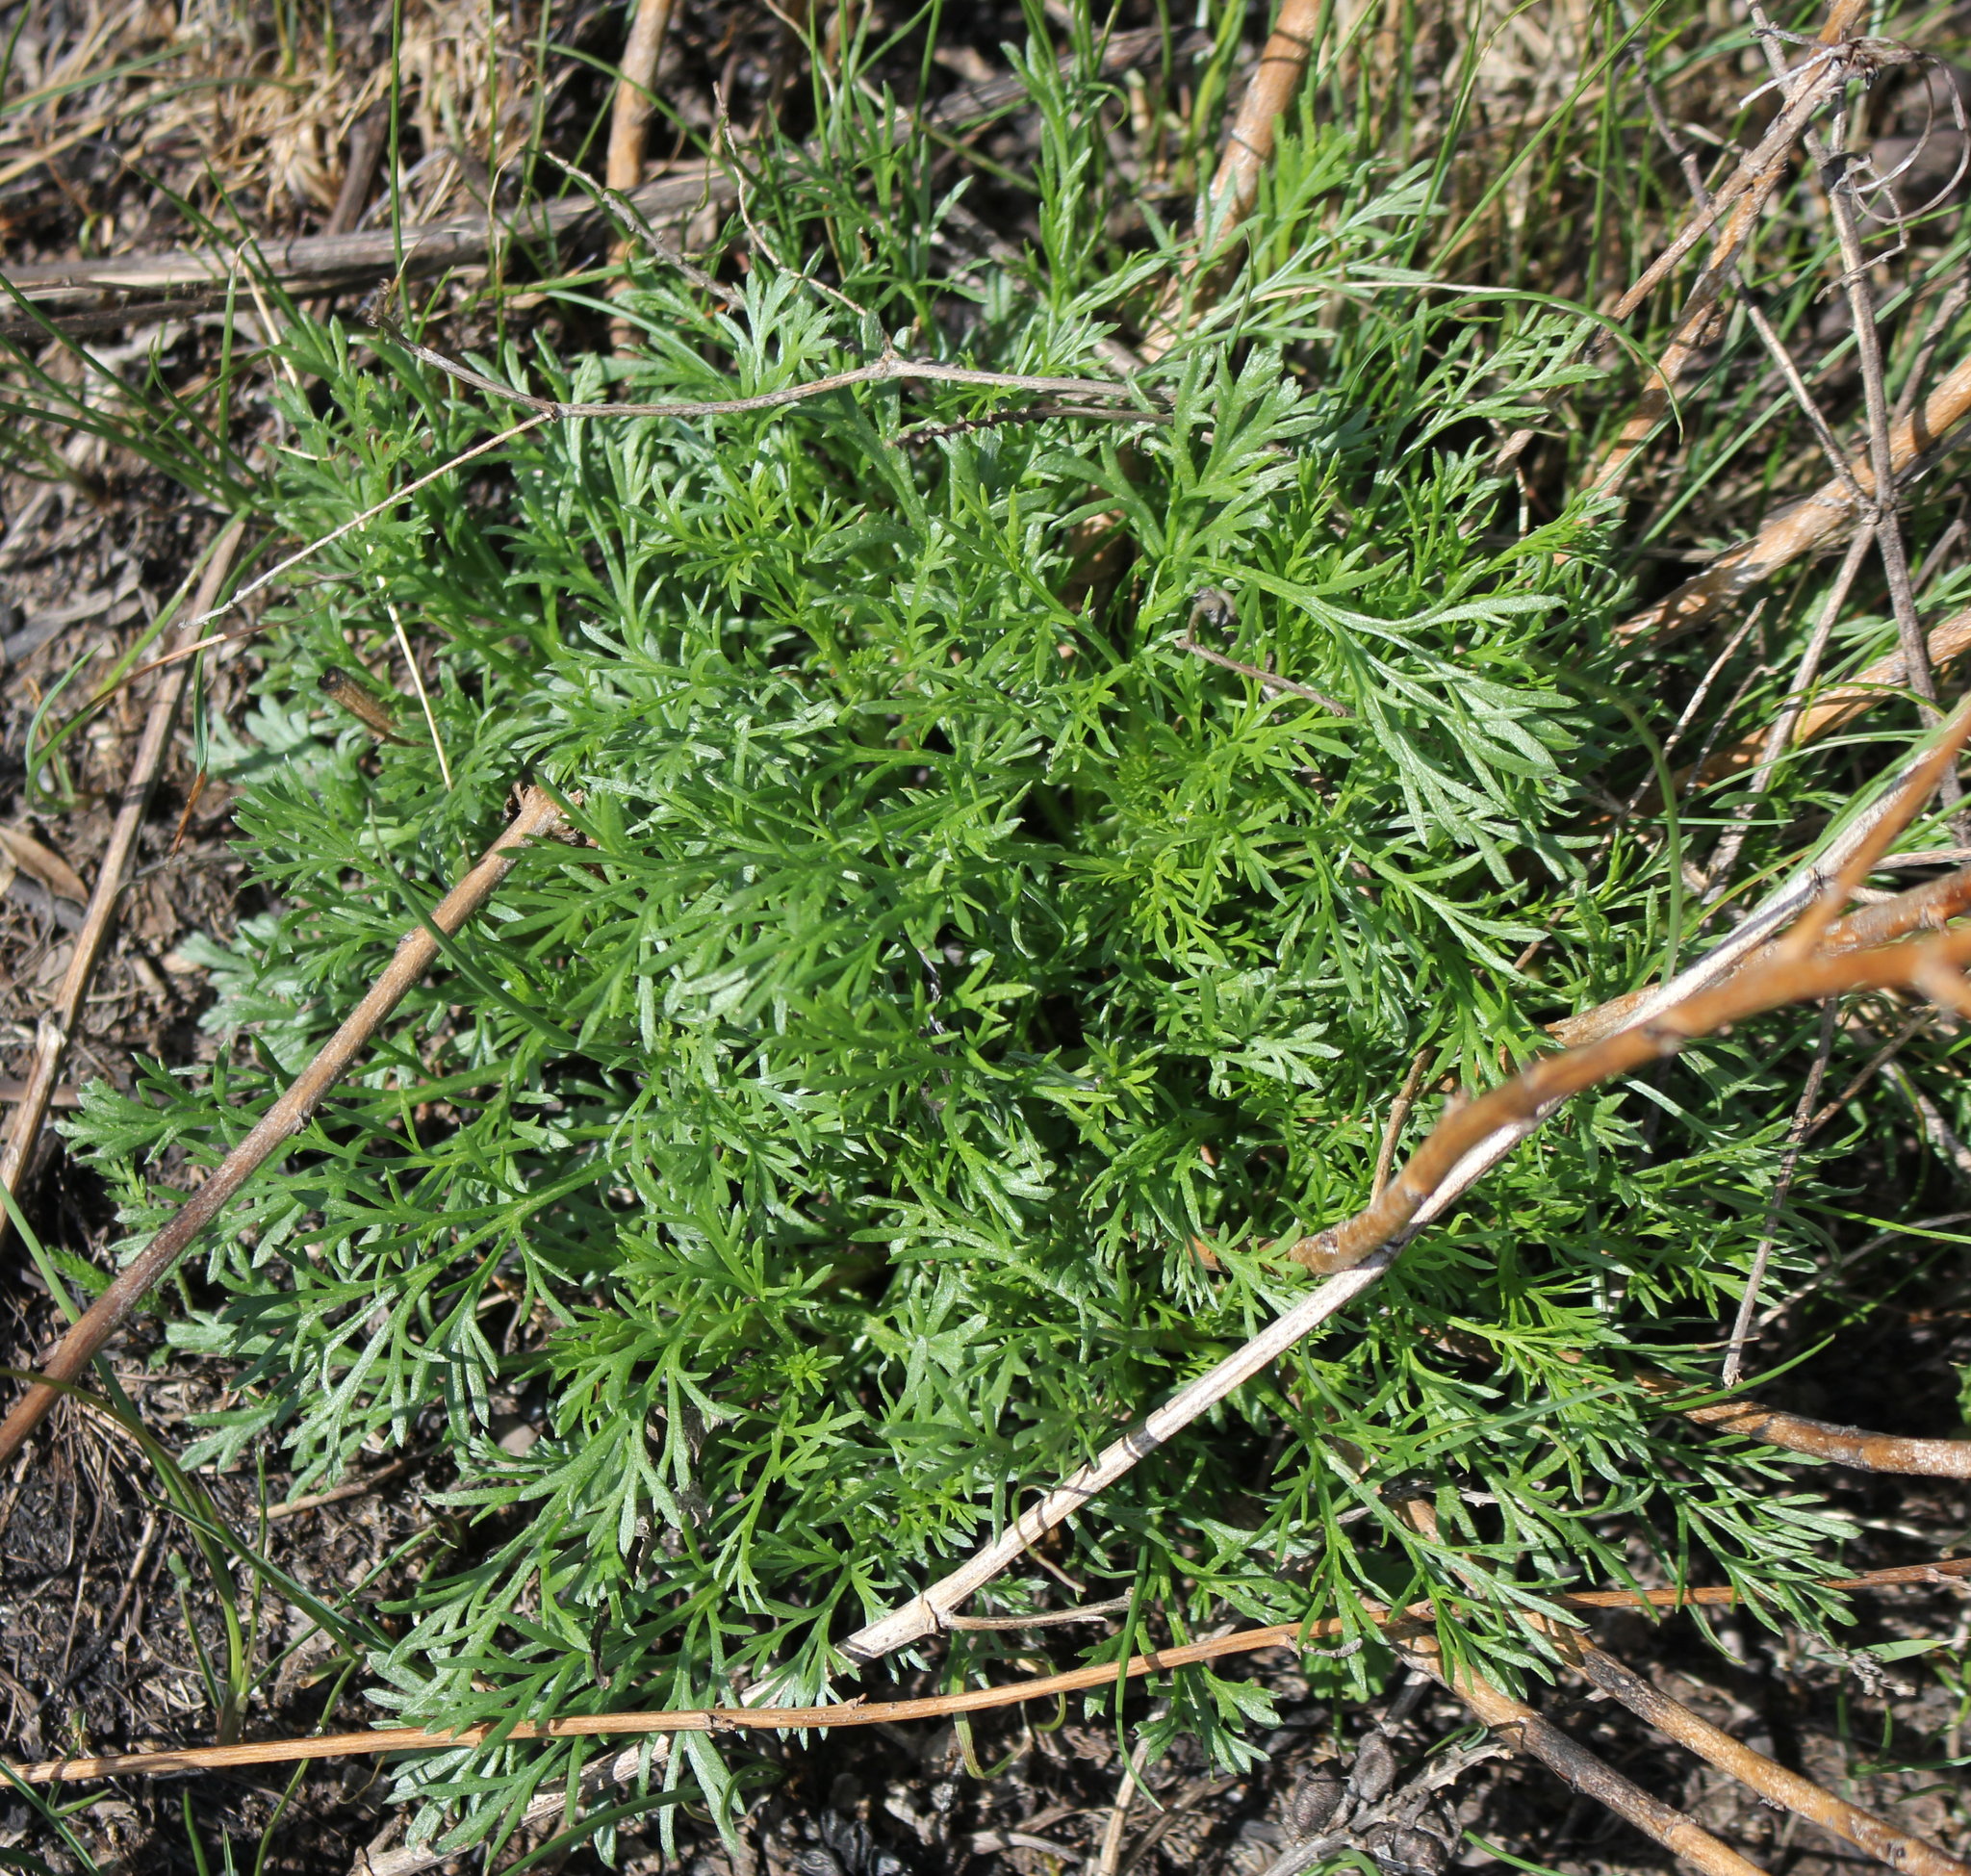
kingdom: Plantae
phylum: Tracheophyta
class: Magnoliopsida
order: Asterales
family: Asteraceae
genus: Artemisia
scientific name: Artemisia campestris
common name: Field wormwood
